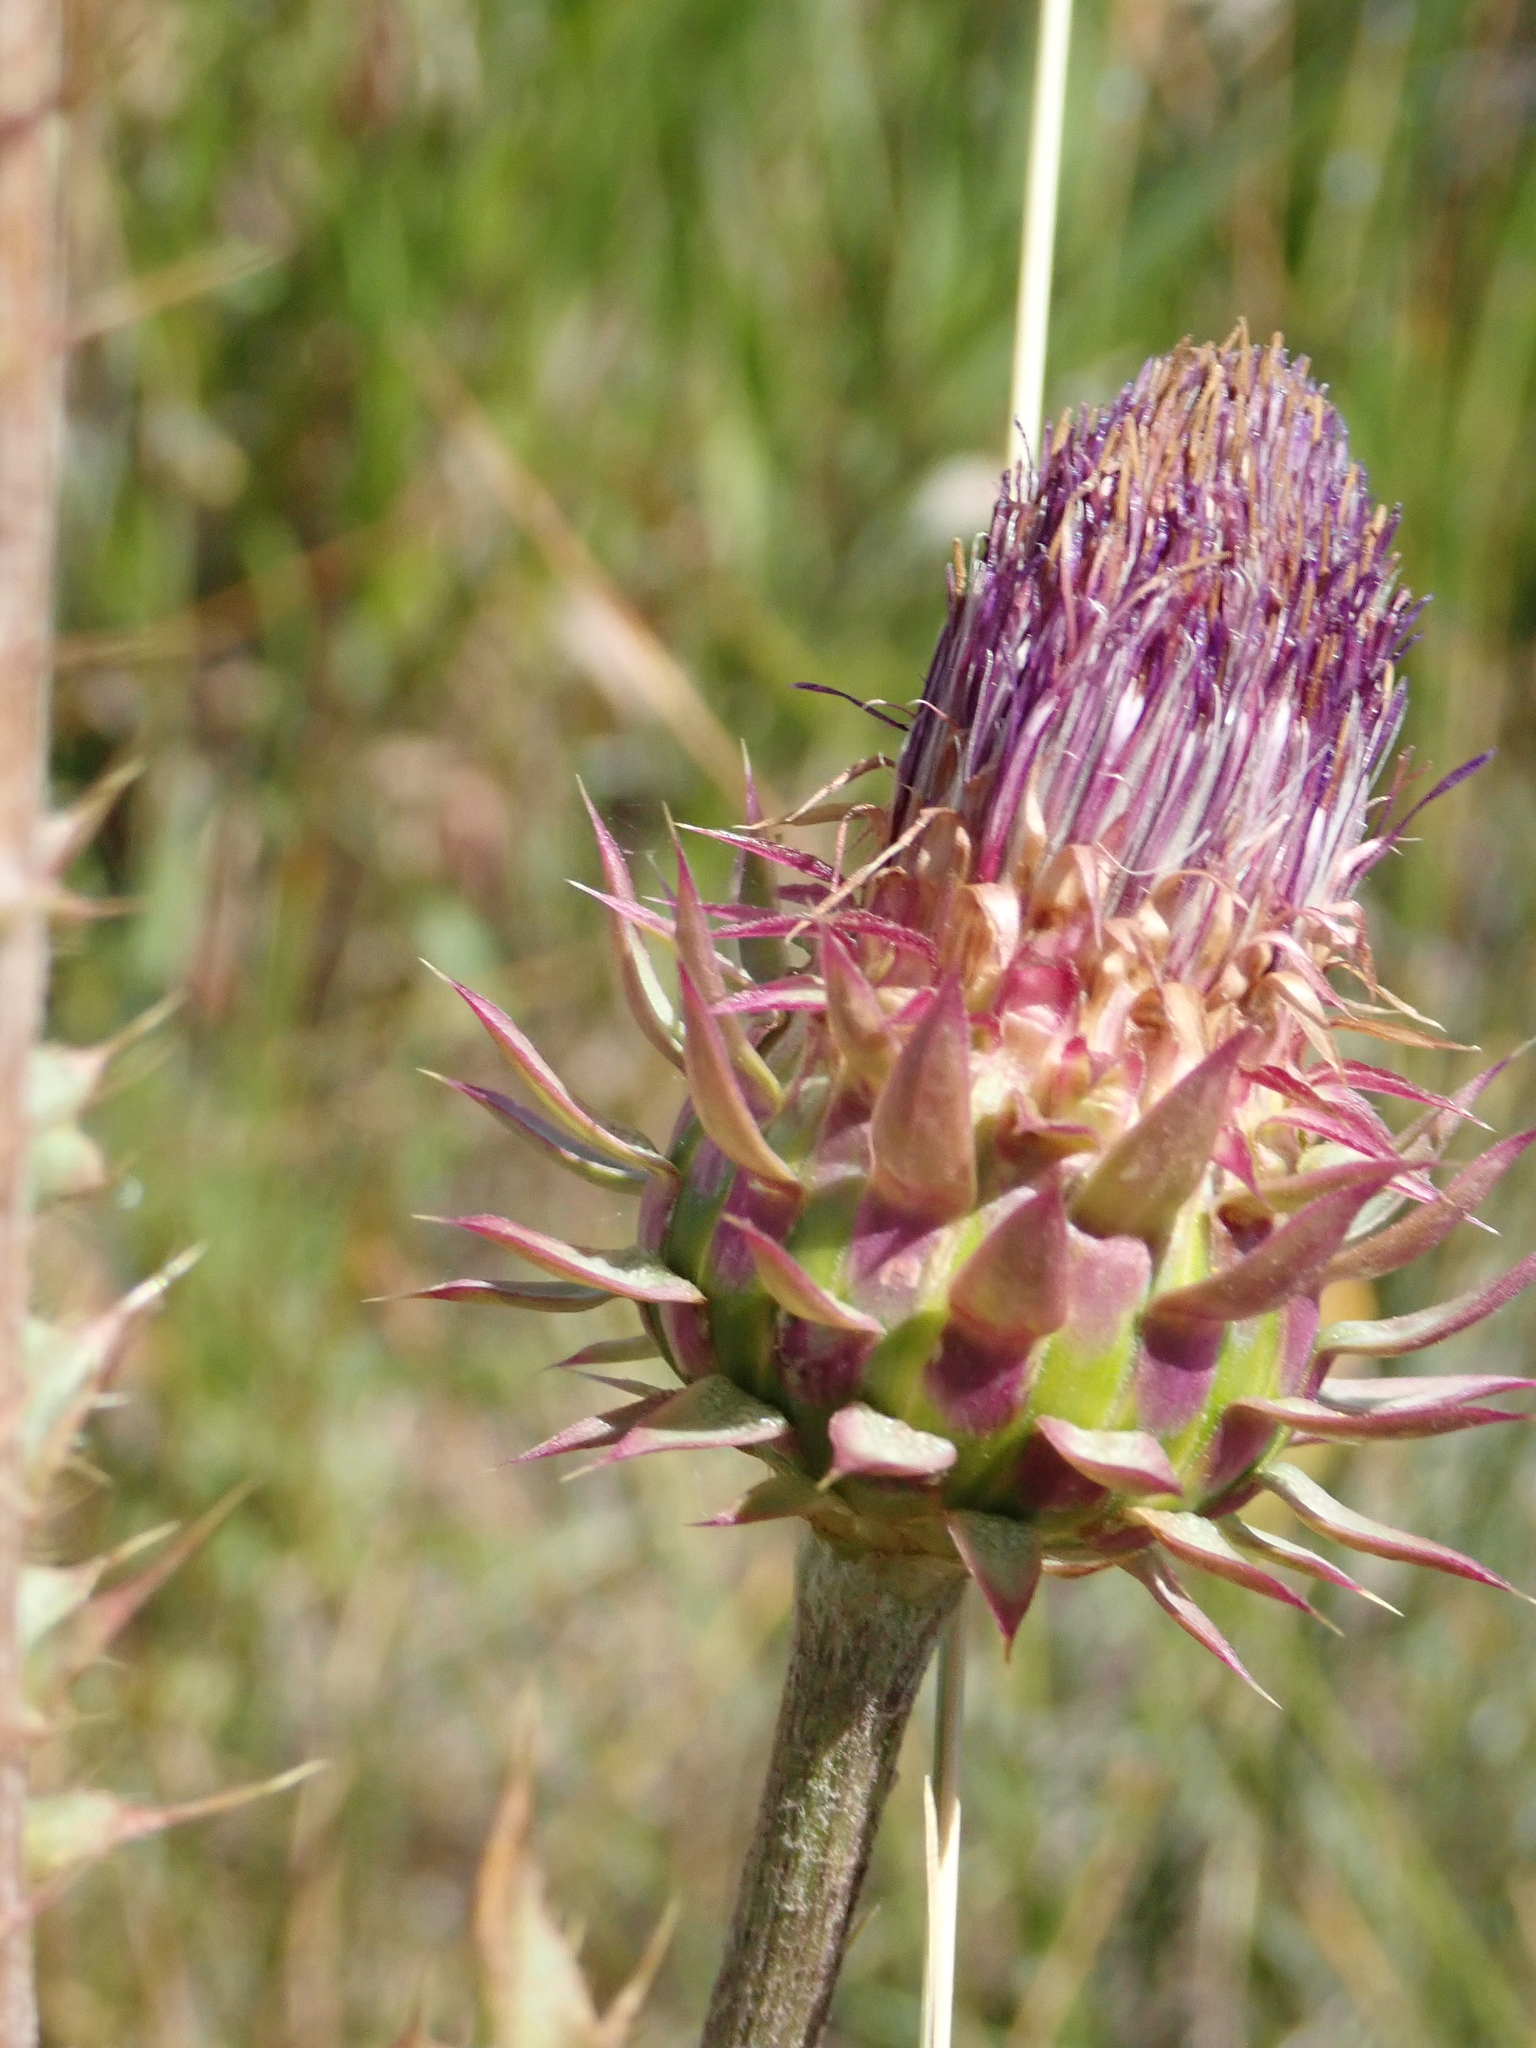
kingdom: Plantae
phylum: Tracheophyta
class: Magnoliopsida
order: Asterales
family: Asteraceae
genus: Carduus
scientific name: Carduus nutans
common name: Musk thistle
